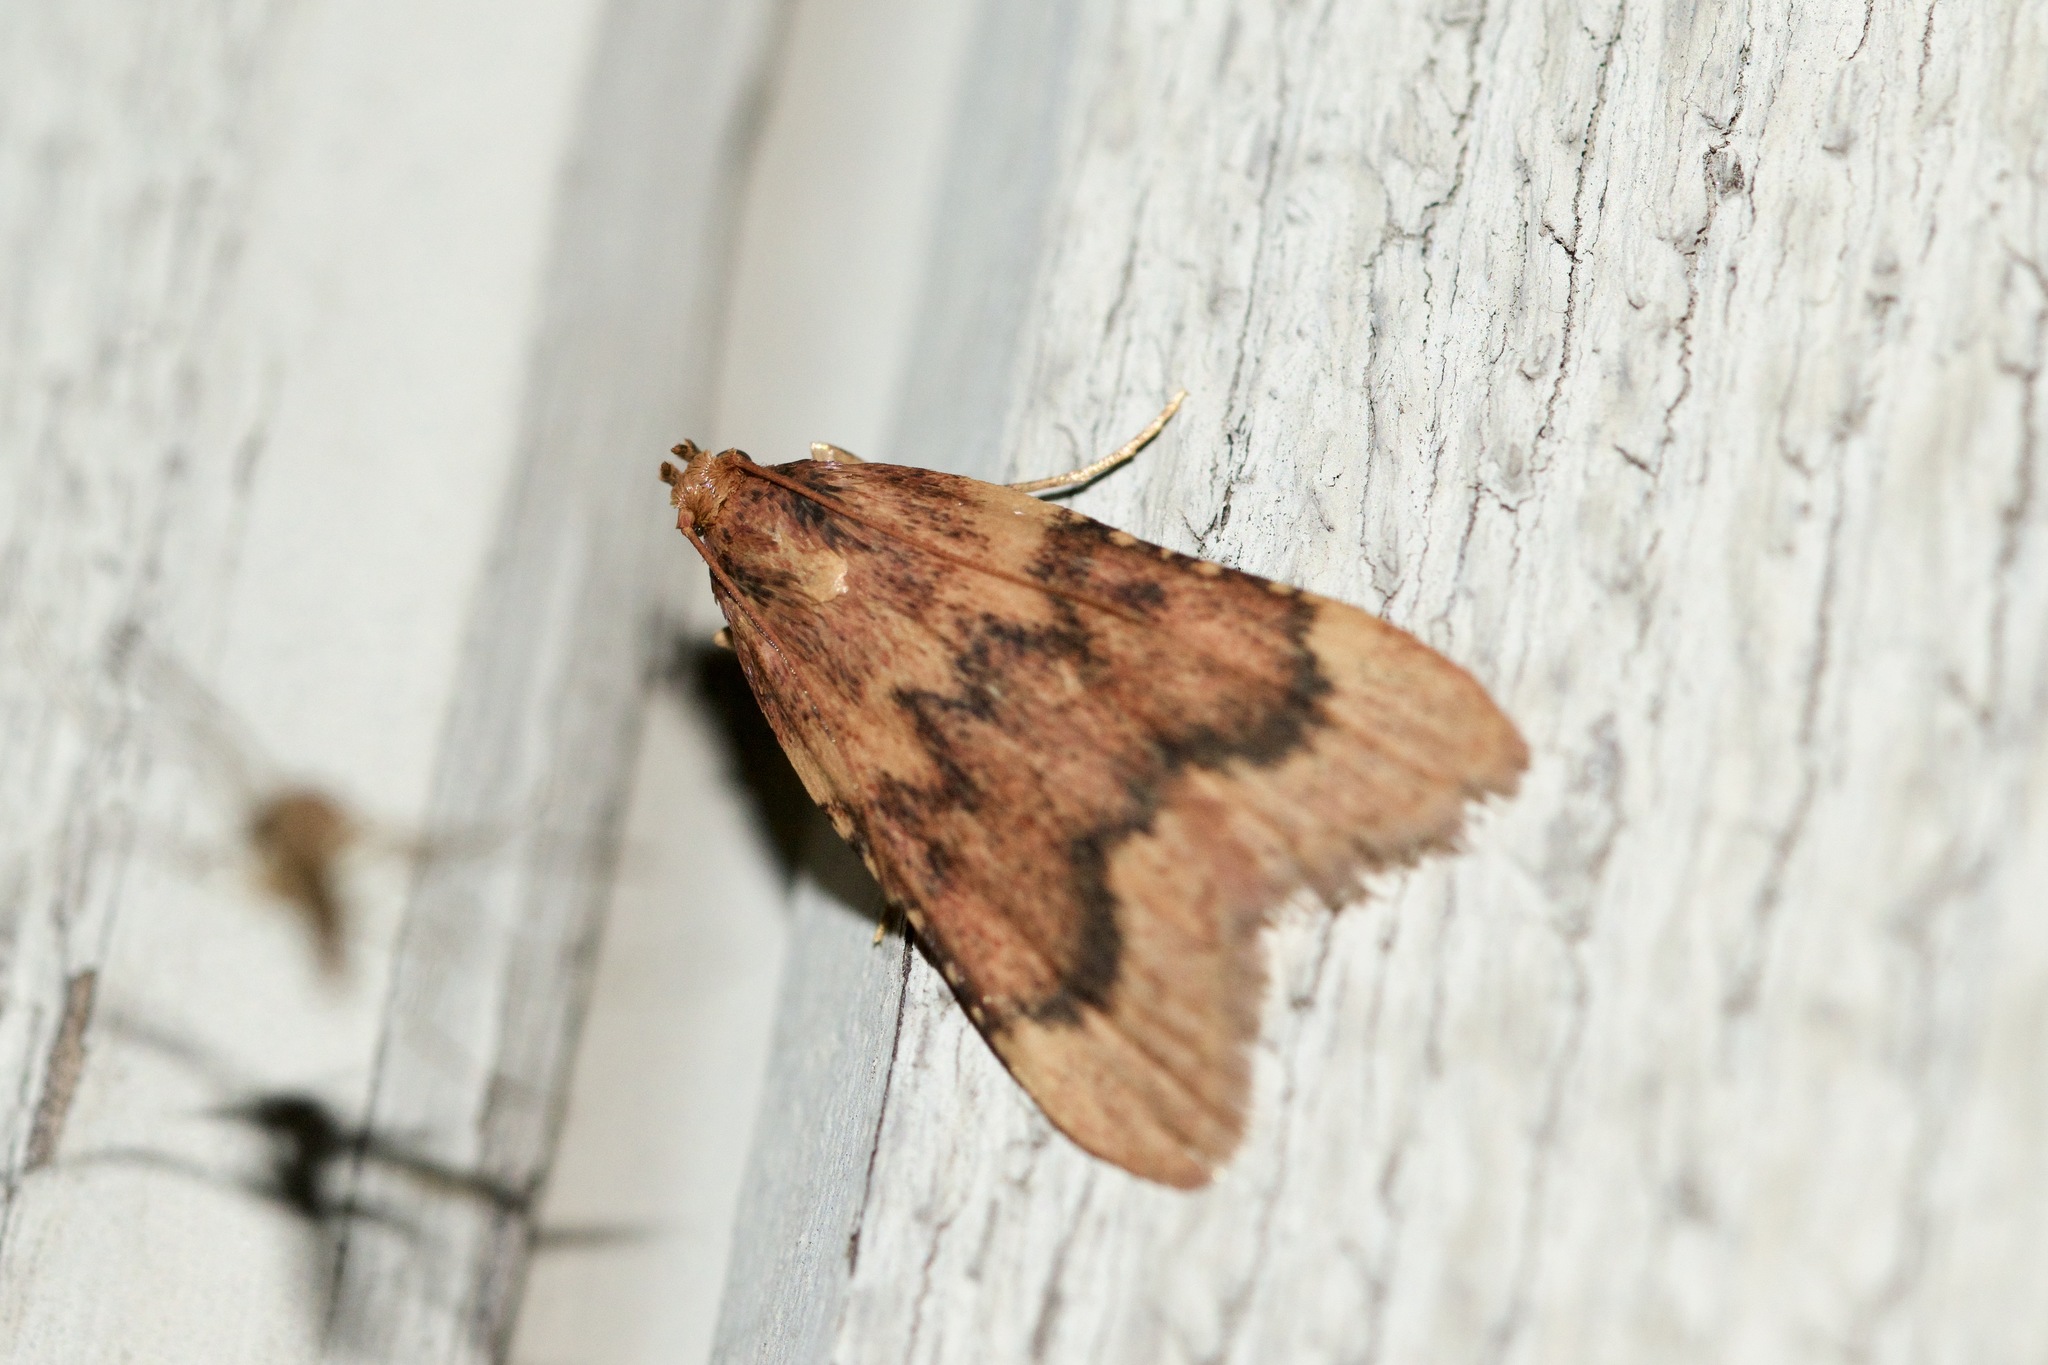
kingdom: Animalia
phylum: Arthropoda
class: Insecta
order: Lepidoptera
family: Pyralidae
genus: Aglossa
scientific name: Aglossa disciferalis
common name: Pink-masked pyralid moth
